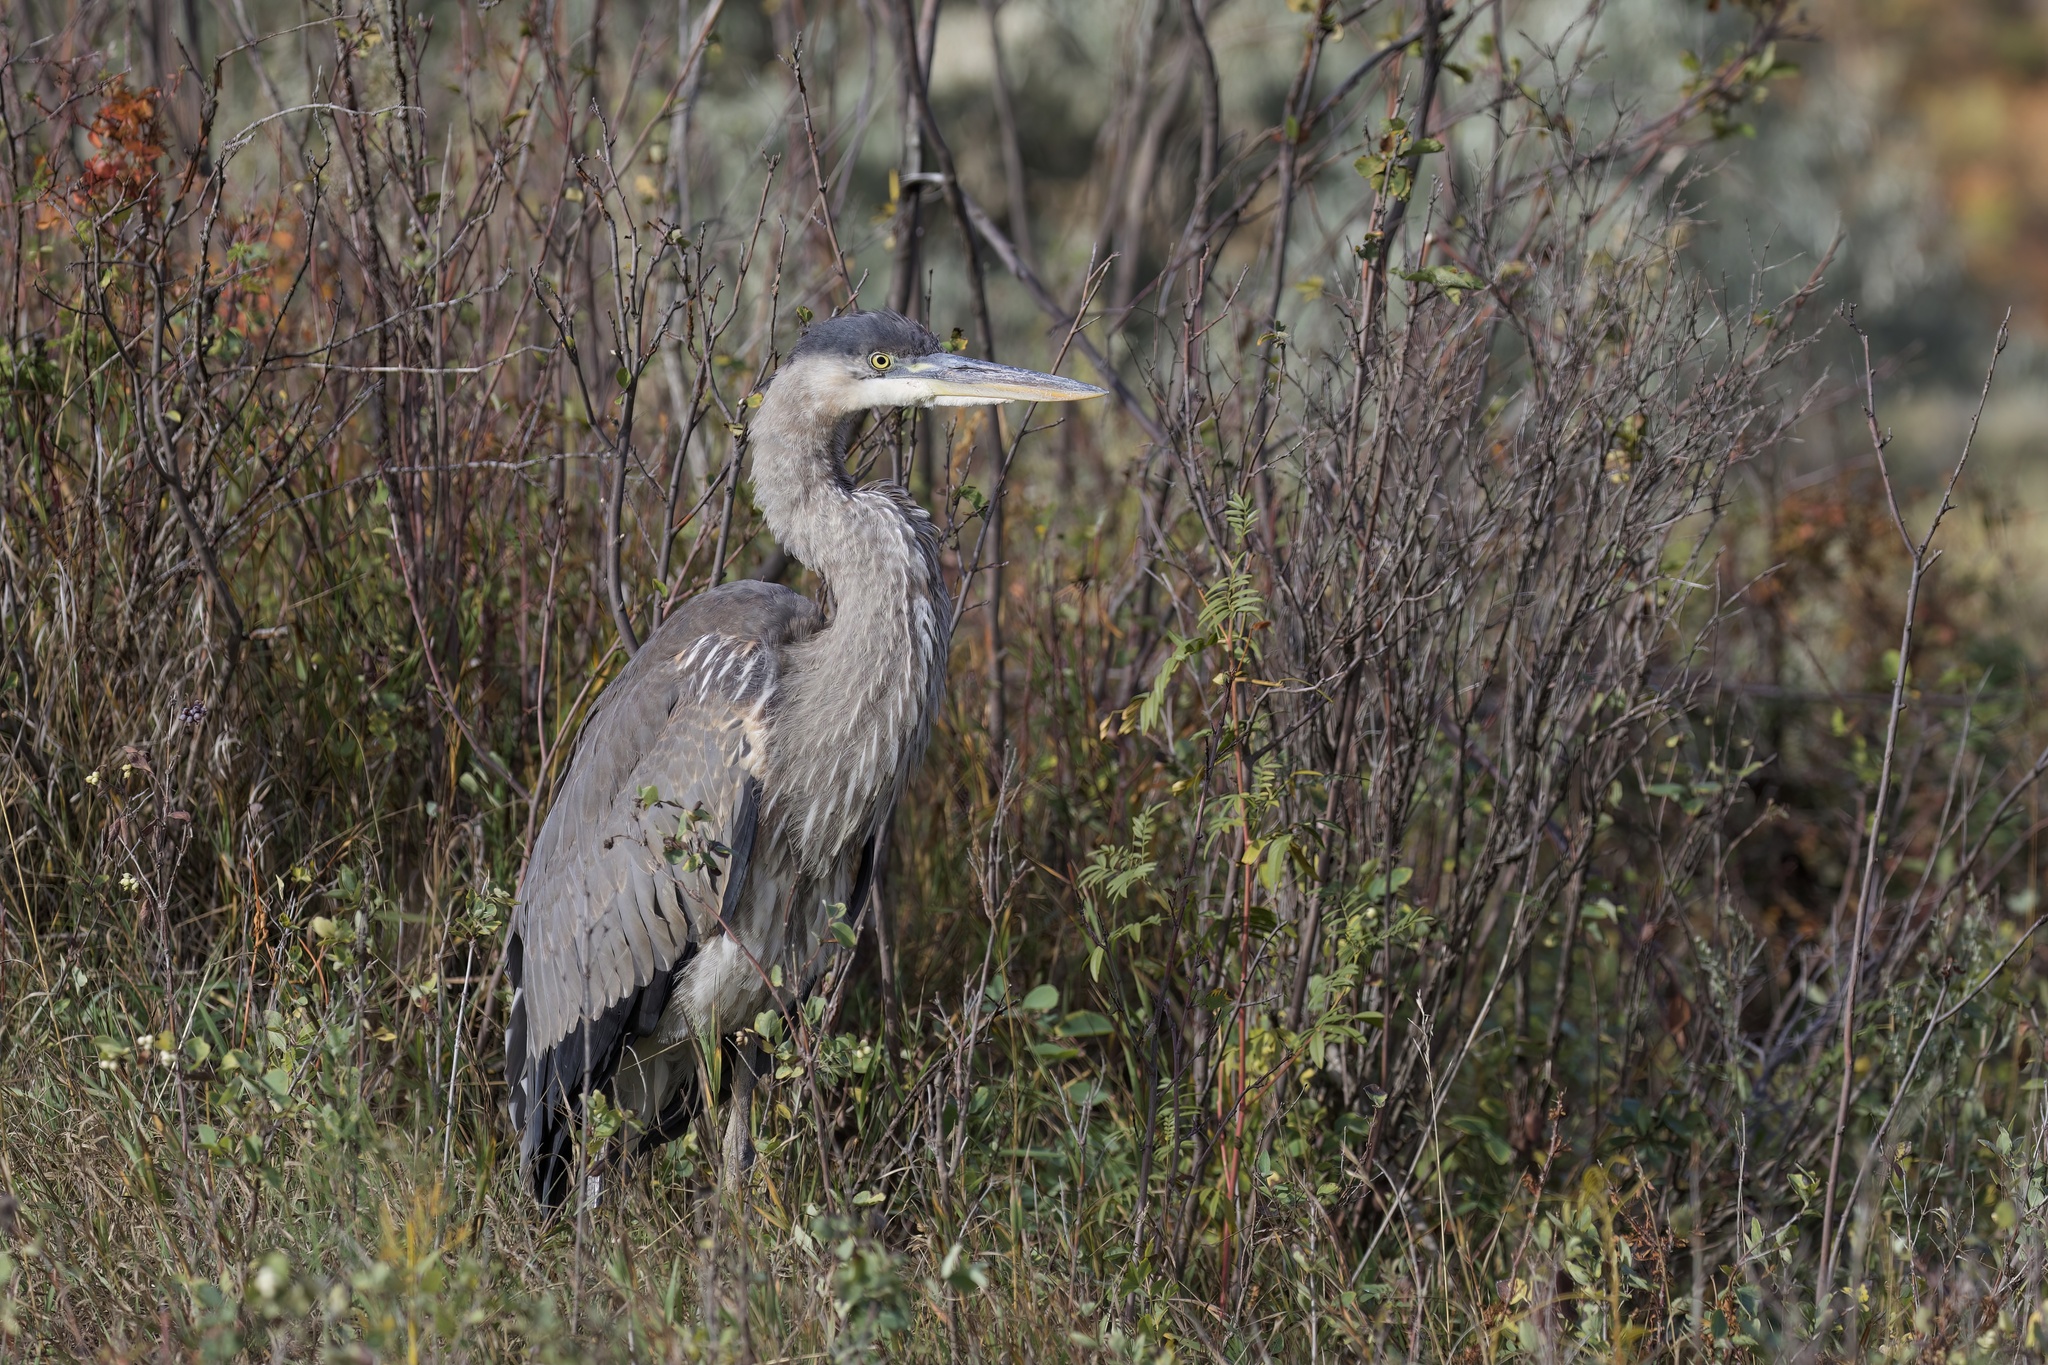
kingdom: Animalia
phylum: Chordata
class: Aves
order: Pelecaniformes
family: Ardeidae
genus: Ardea
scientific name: Ardea herodias
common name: Great blue heron
